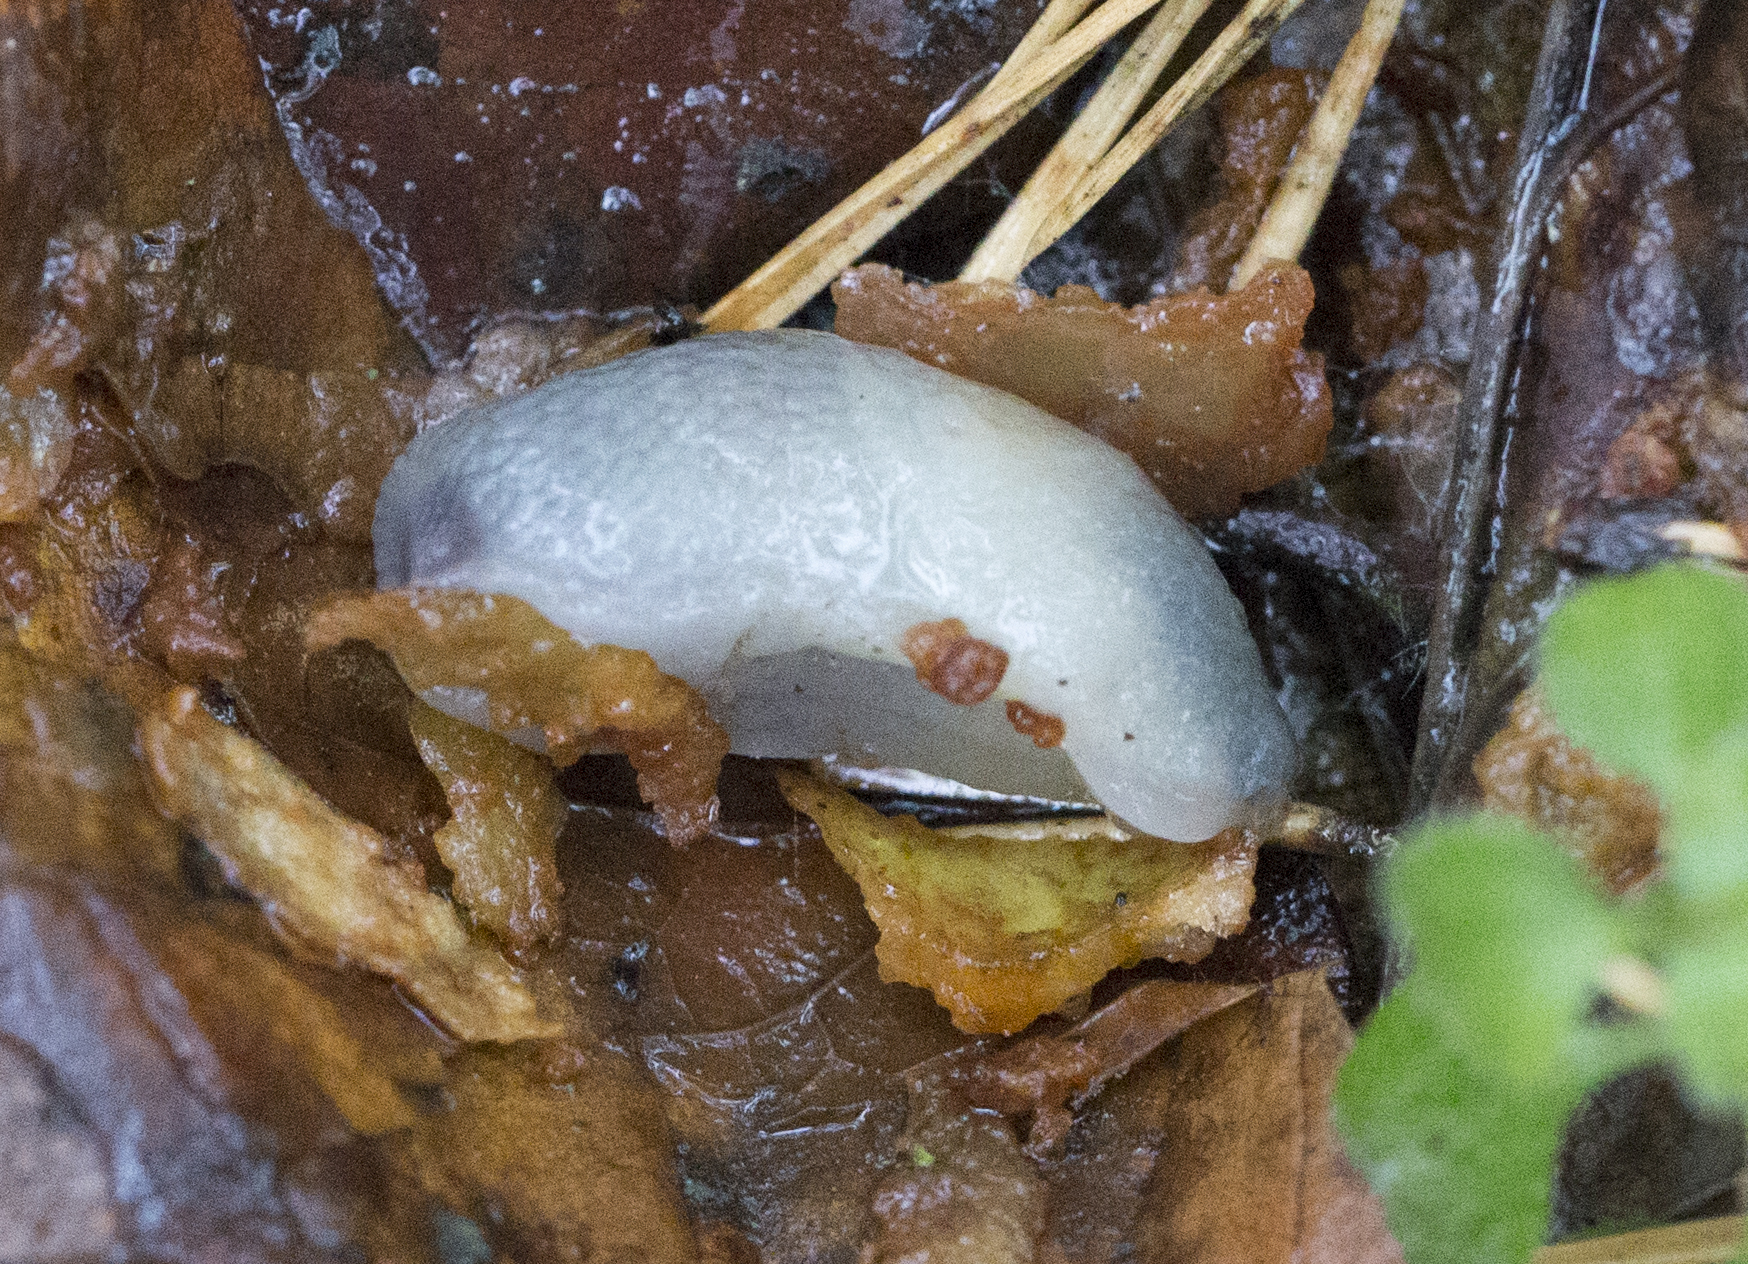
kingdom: Animalia
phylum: Mollusca
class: Gastropoda
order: Stylommatophora
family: Agriolimacidae
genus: Krynickillus
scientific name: Krynickillus melanocephalus
